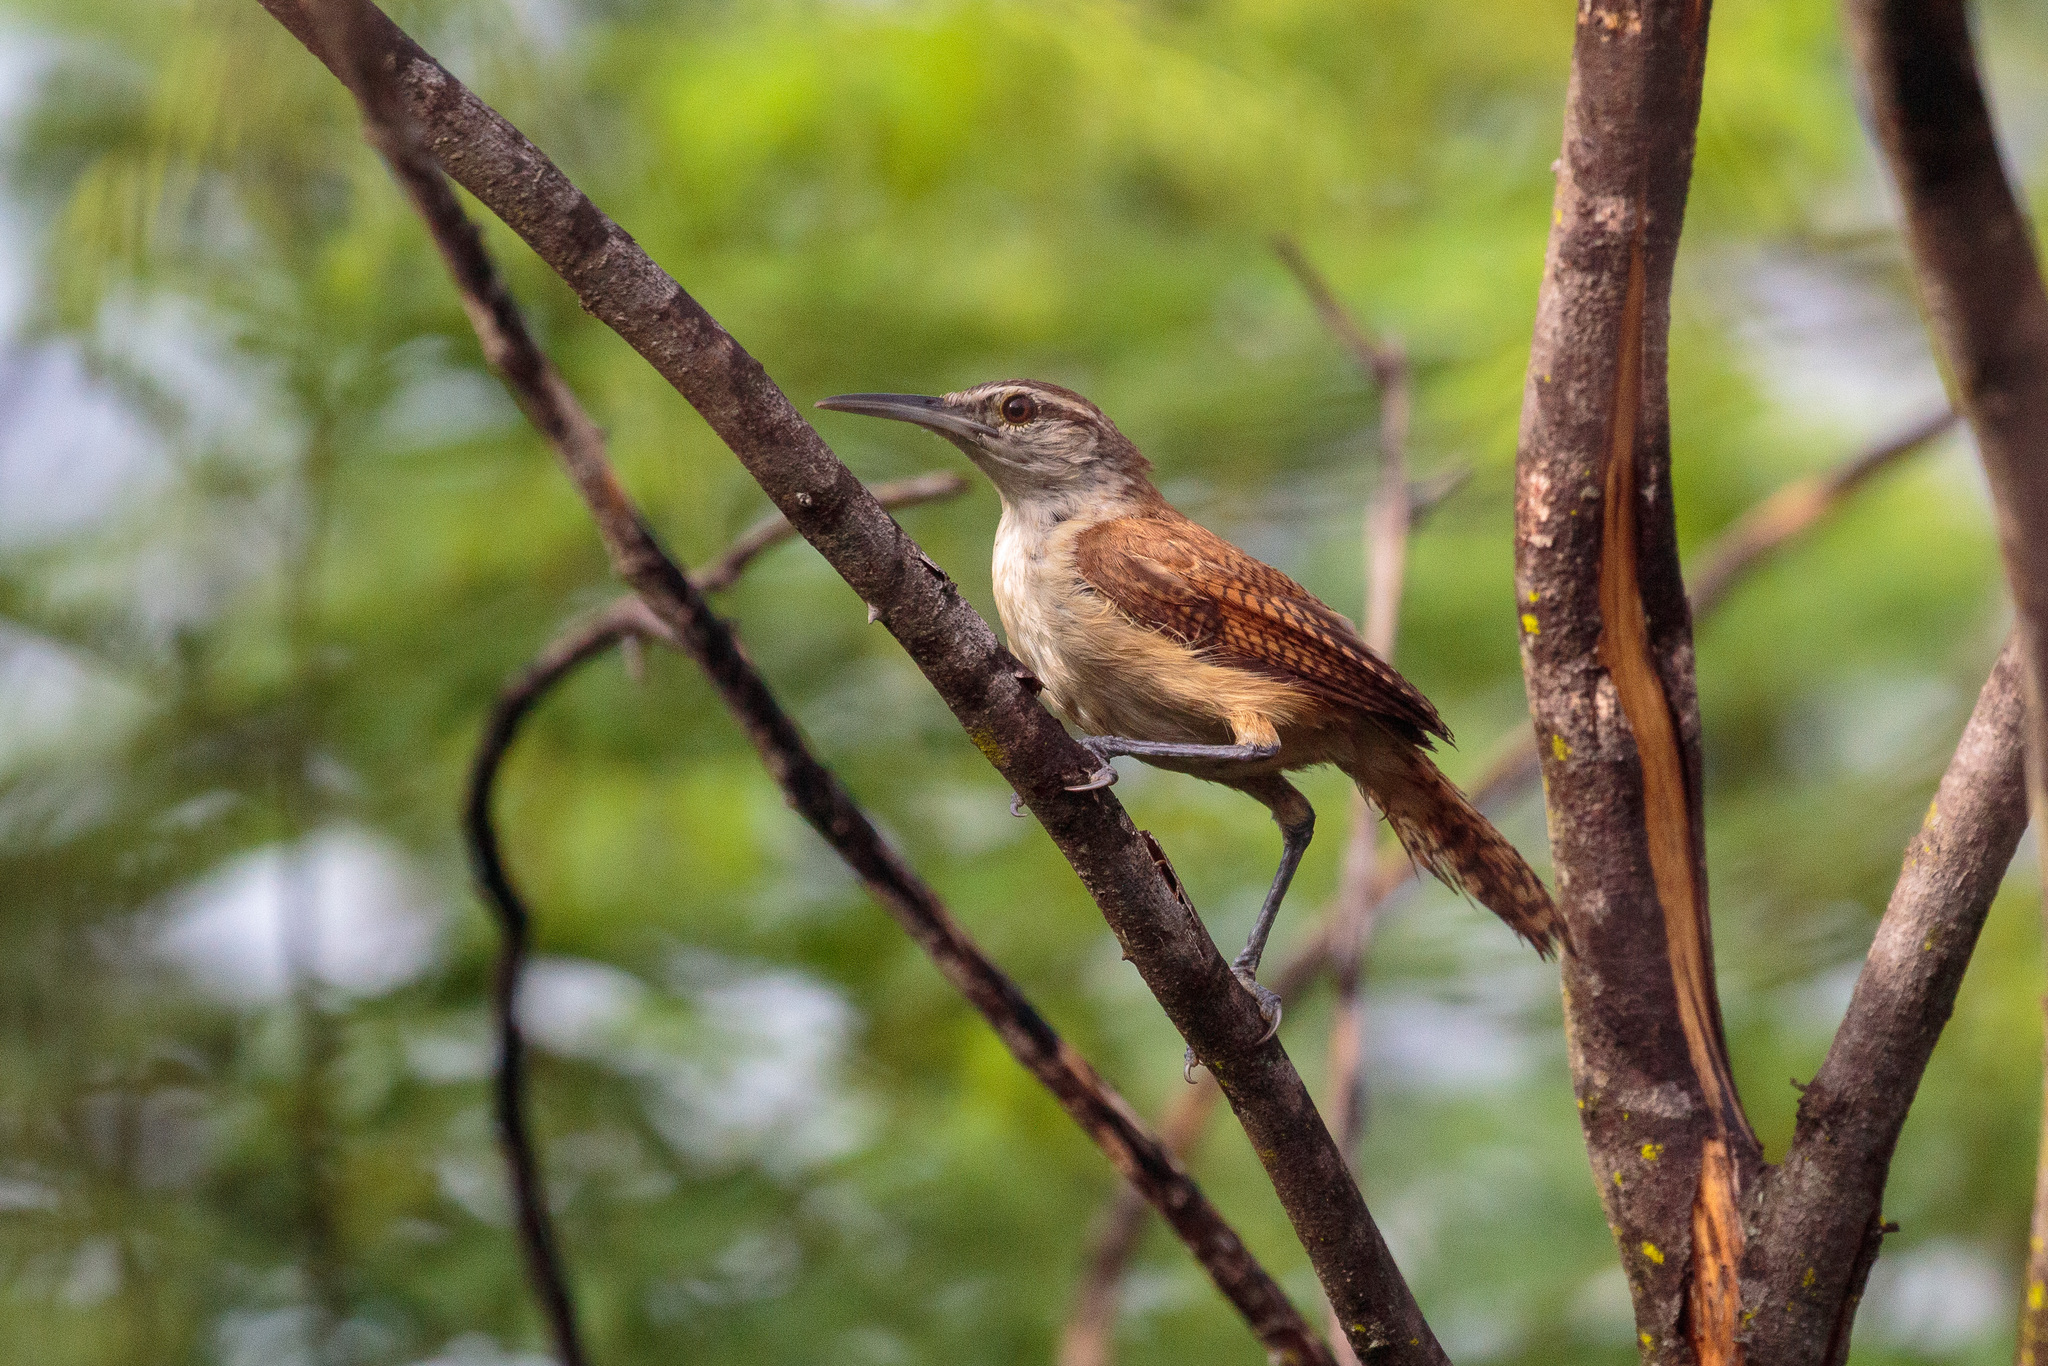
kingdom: Animalia
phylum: Chordata
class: Aves
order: Passeriformes
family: Troglodytidae
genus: Cantorchilus
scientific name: Cantorchilus longirostris
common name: Long-billed wren
